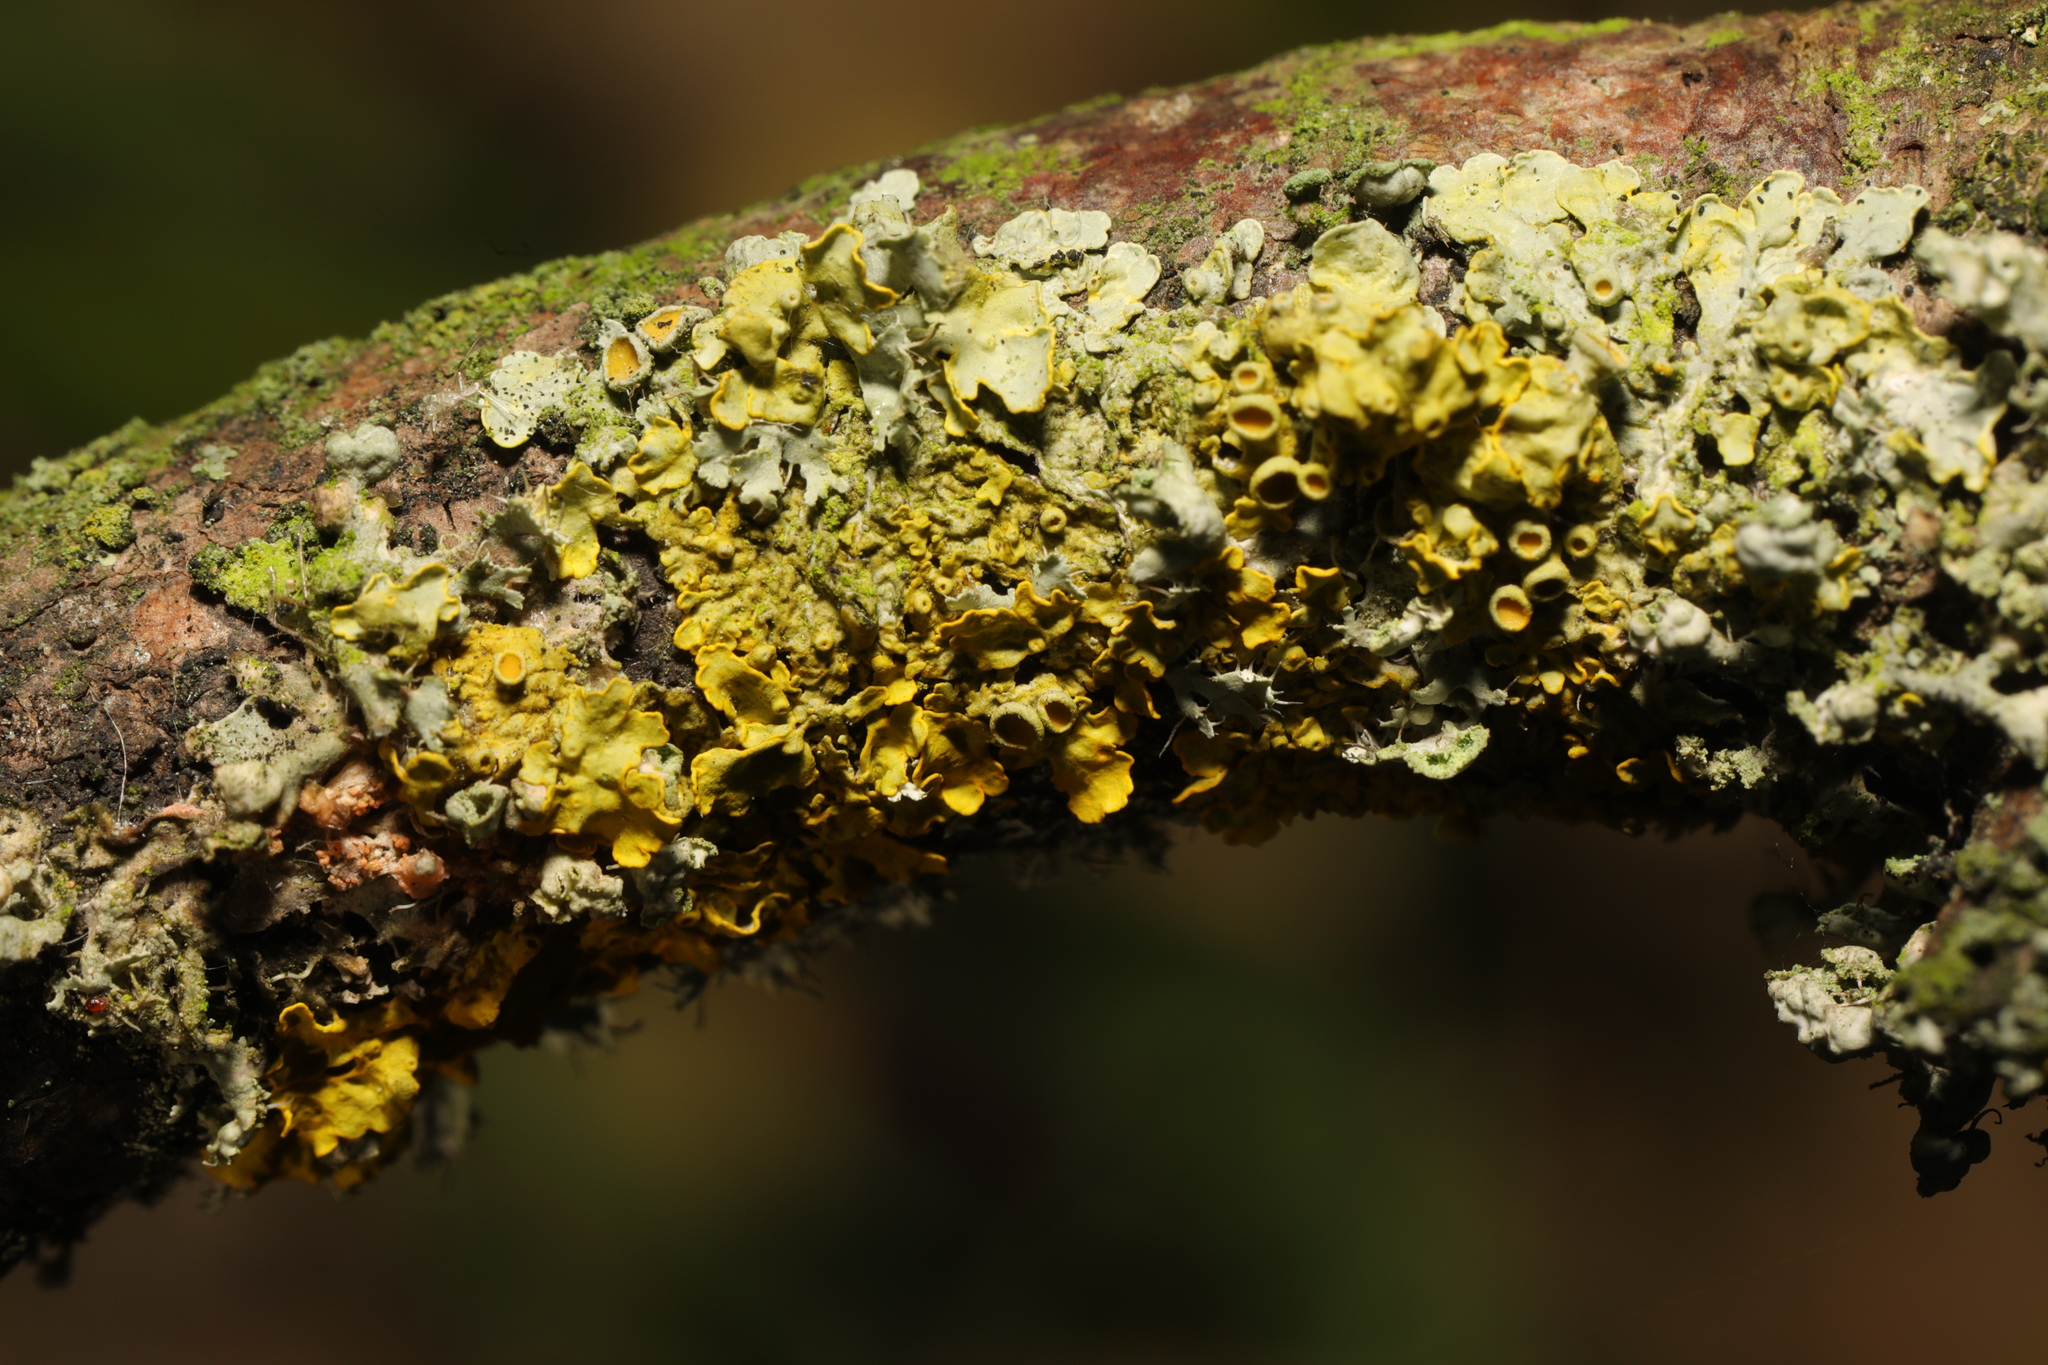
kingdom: Fungi
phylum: Ascomycota
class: Lecanoromycetes
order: Teloschistales
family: Teloschistaceae
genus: Xanthoria
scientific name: Xanthoria parietina
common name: Common orange lichen
